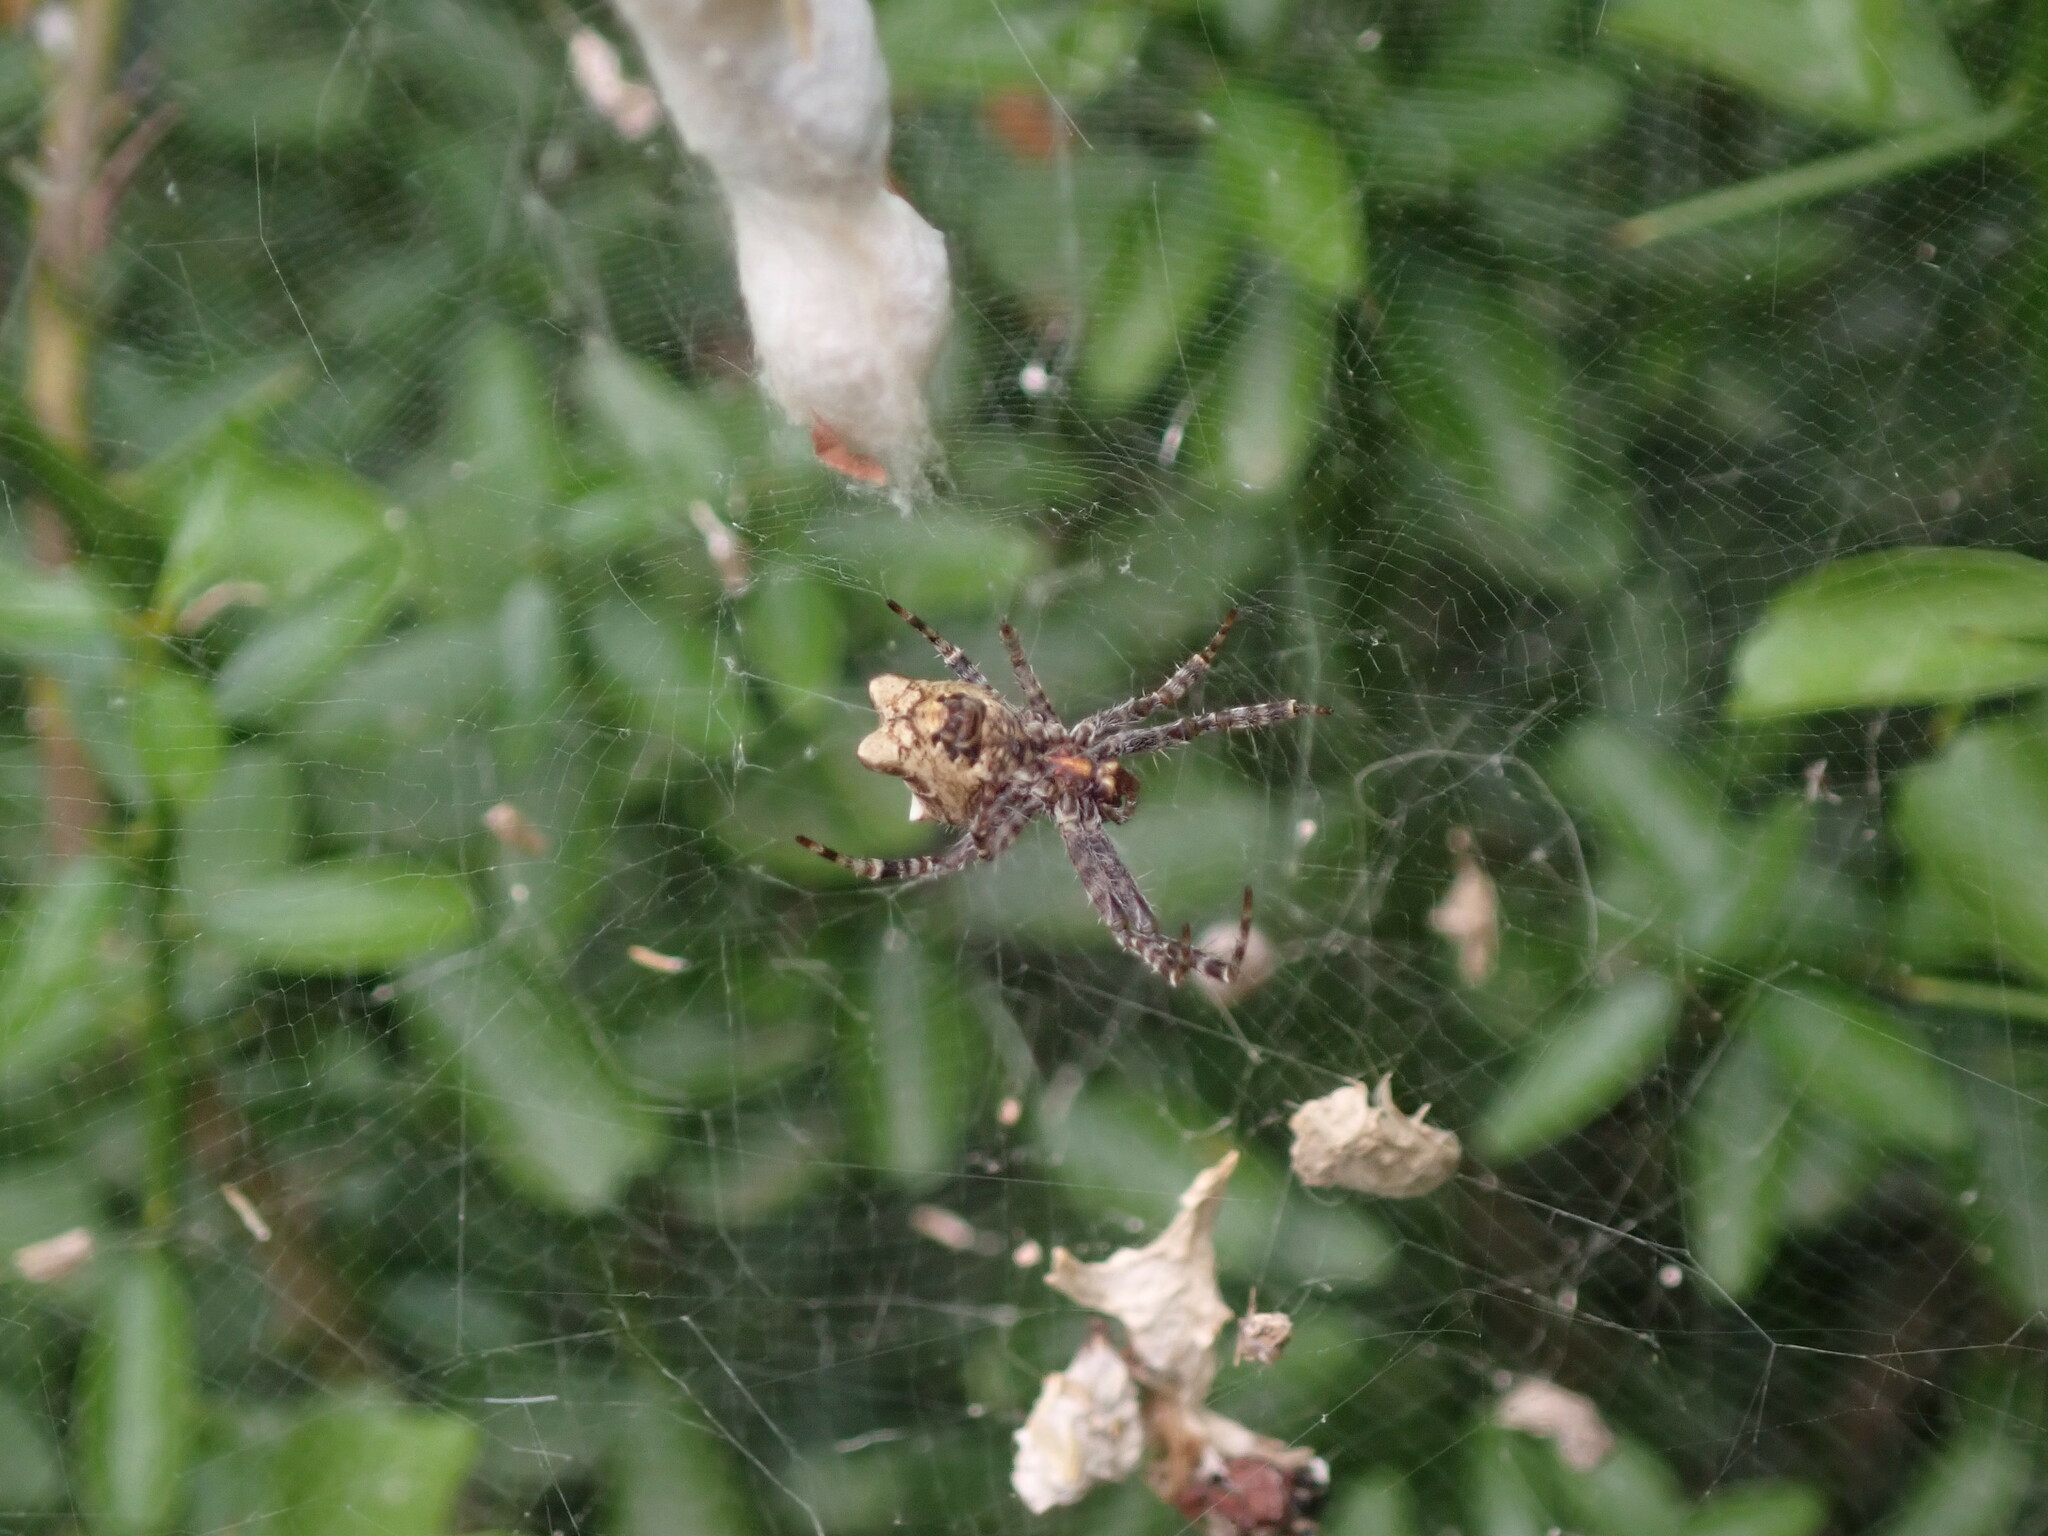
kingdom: Animalia
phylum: Arthropoda
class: Arachnida
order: Araneae
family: Araneidae
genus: Cyrtophora
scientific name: Cyrtophora citricola
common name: Orb weavers
